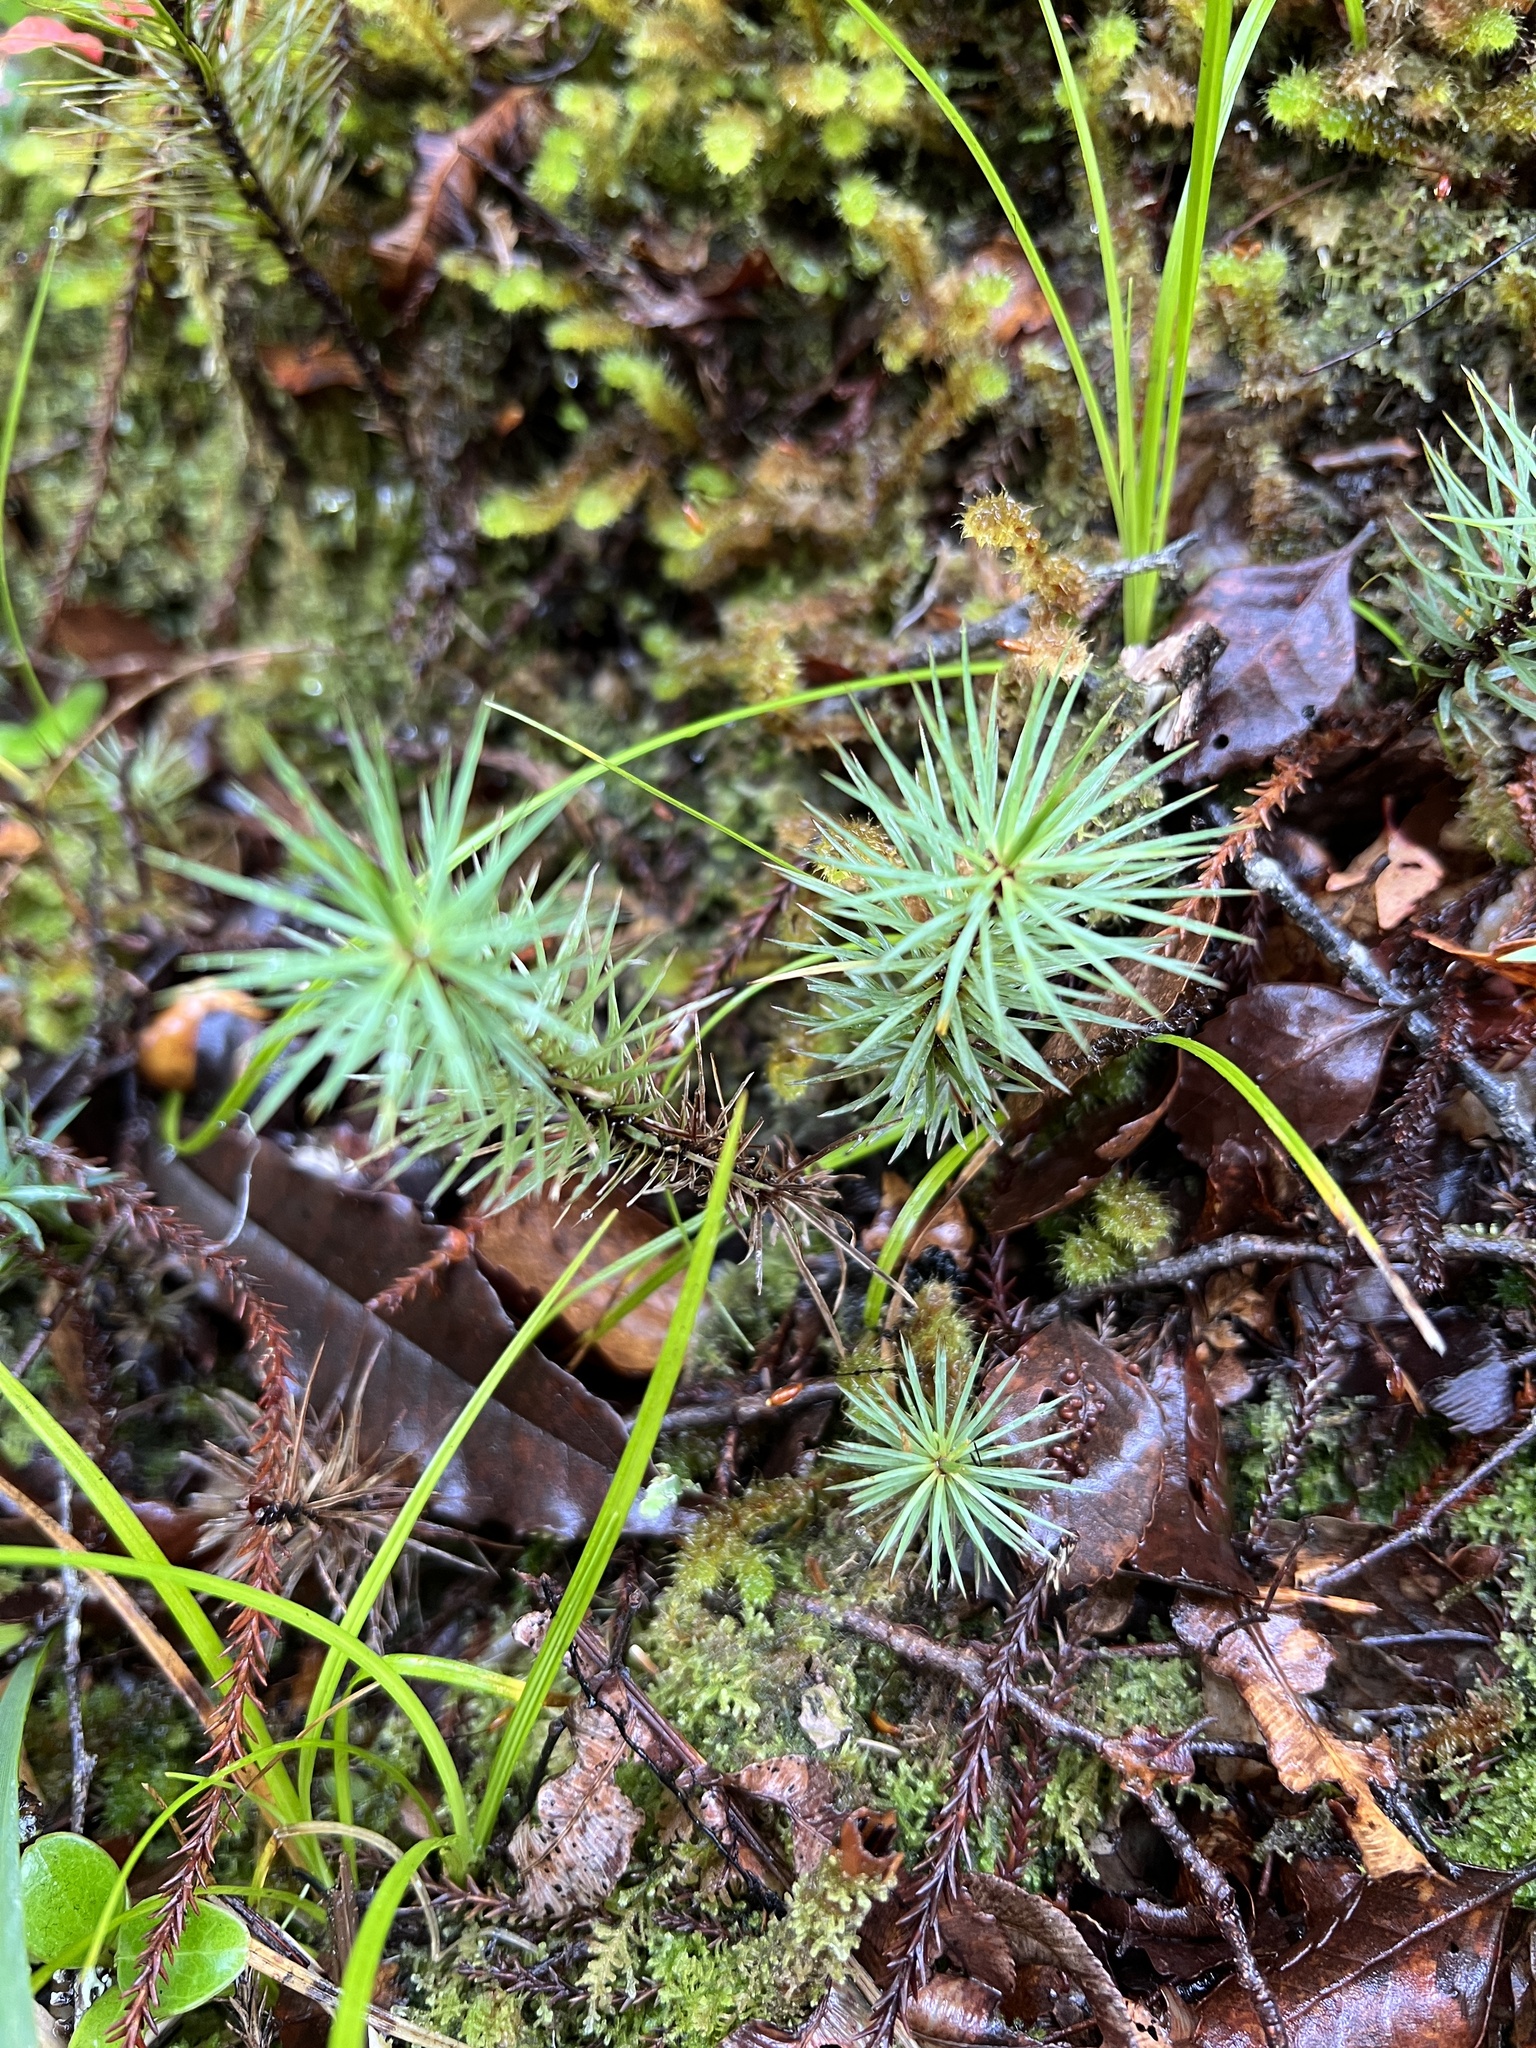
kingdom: Plantae
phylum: Bryophyta
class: Polytrichopsida
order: Polytrichales
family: Polytrichaceae
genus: Dawsonia
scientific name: Dawsonia superba
